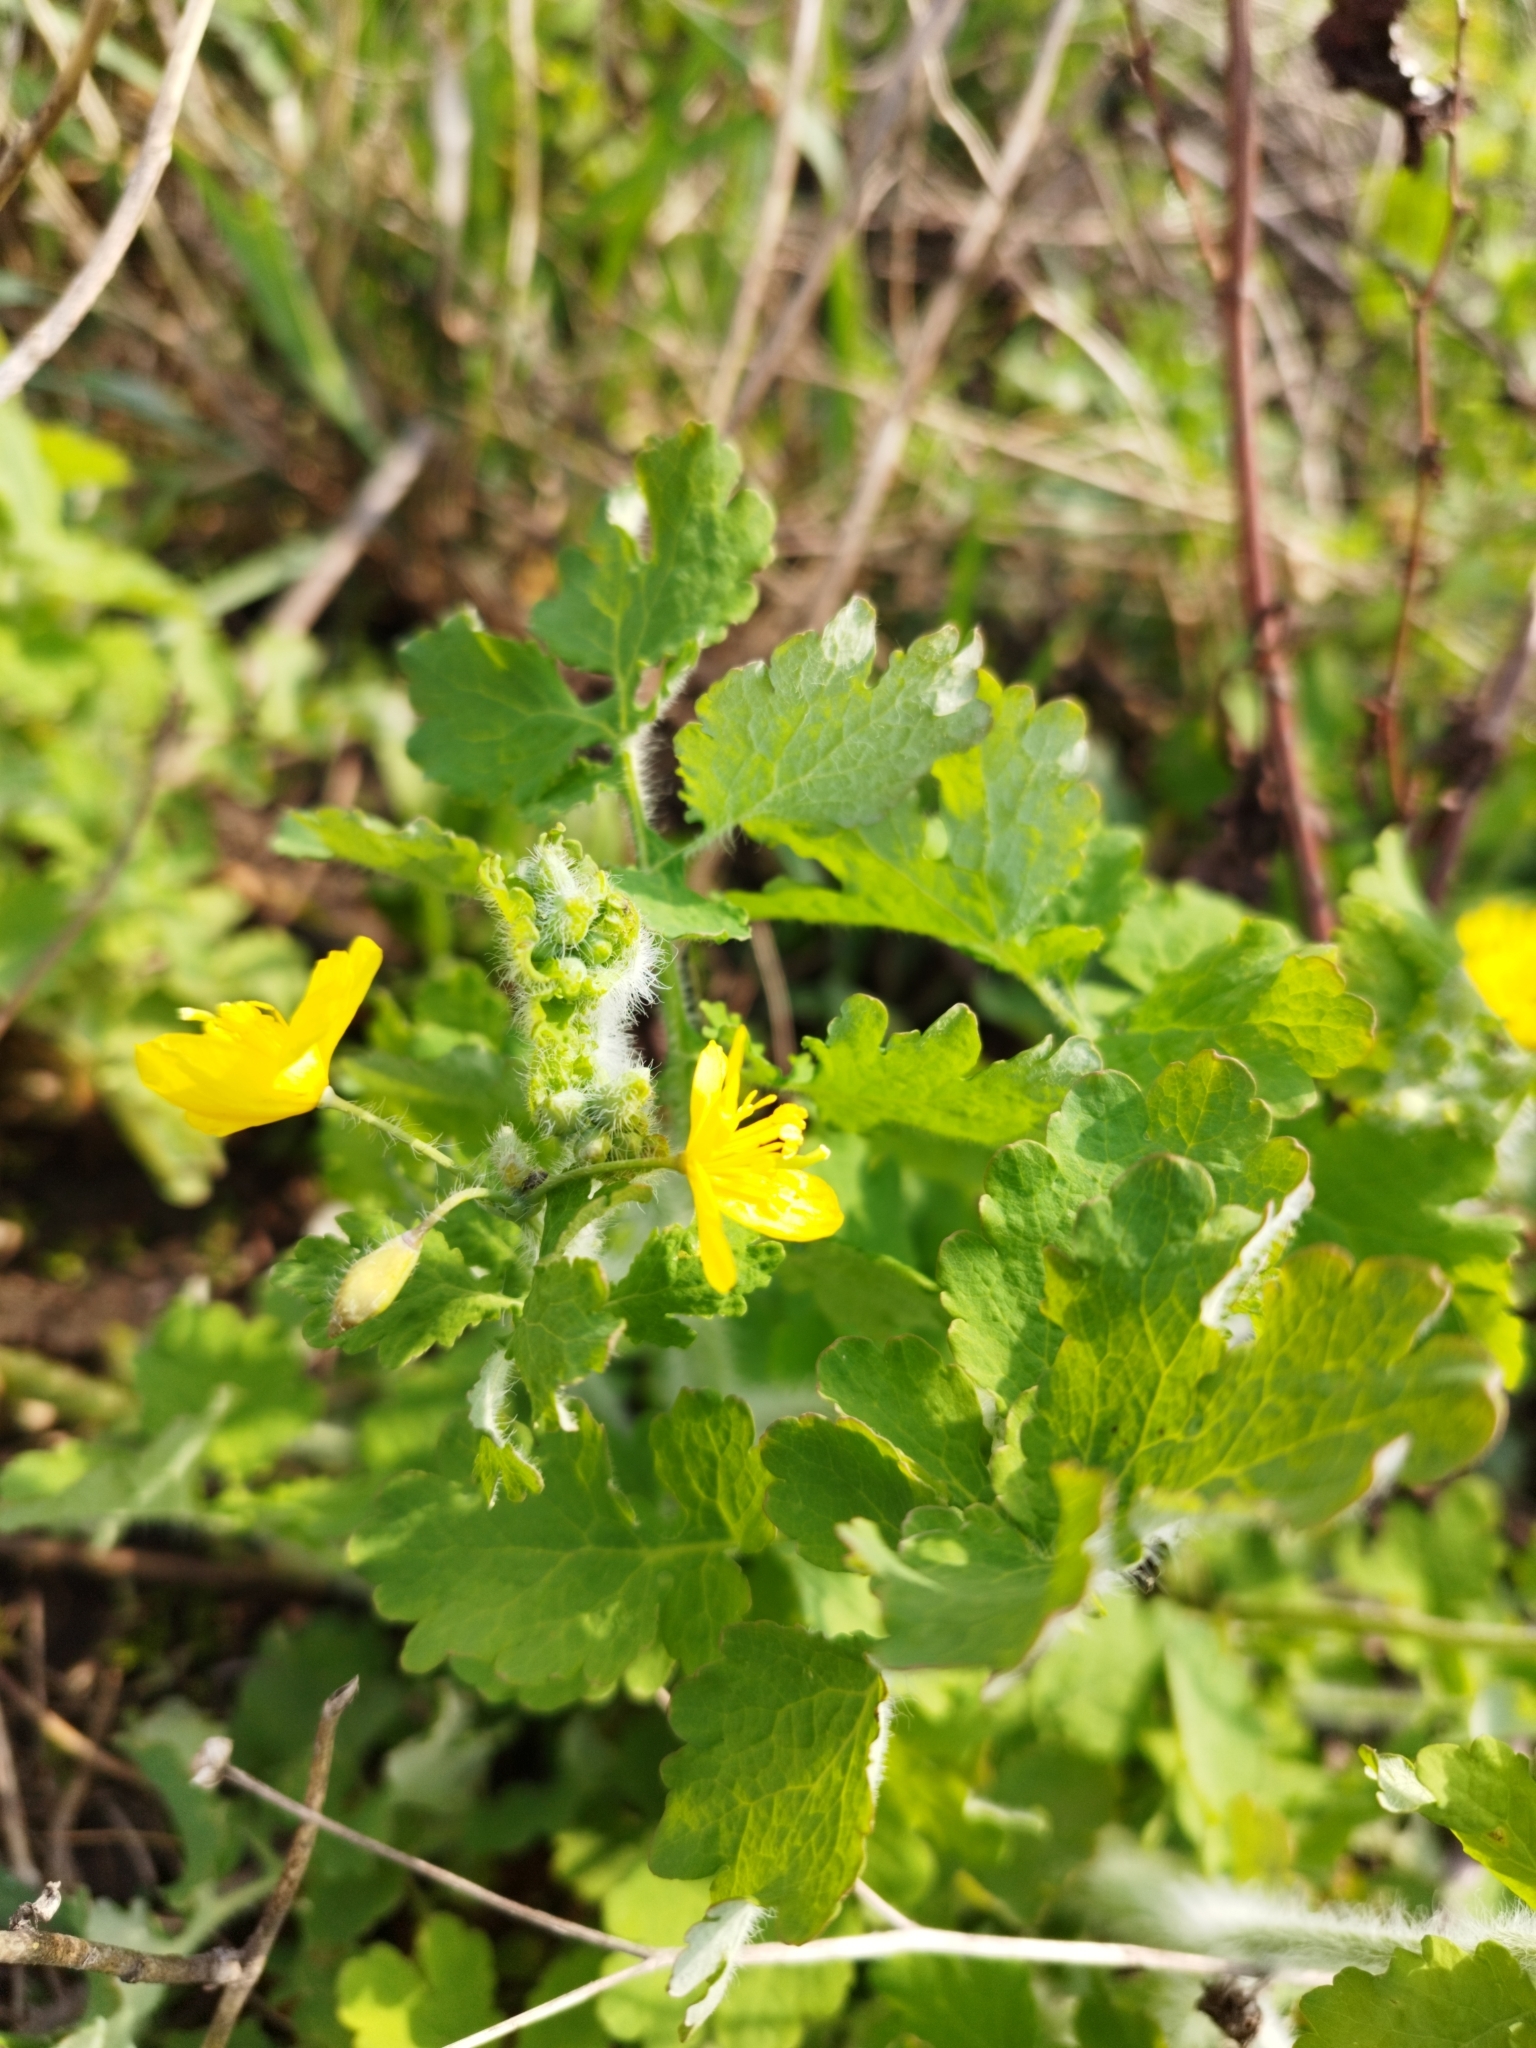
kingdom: Plantae
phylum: Tracheophyta
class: Magnoliopsida
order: Ranunculales
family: Papaveraceae
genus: Chelidonium
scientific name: Chelidonium majus
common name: Greater celandine
